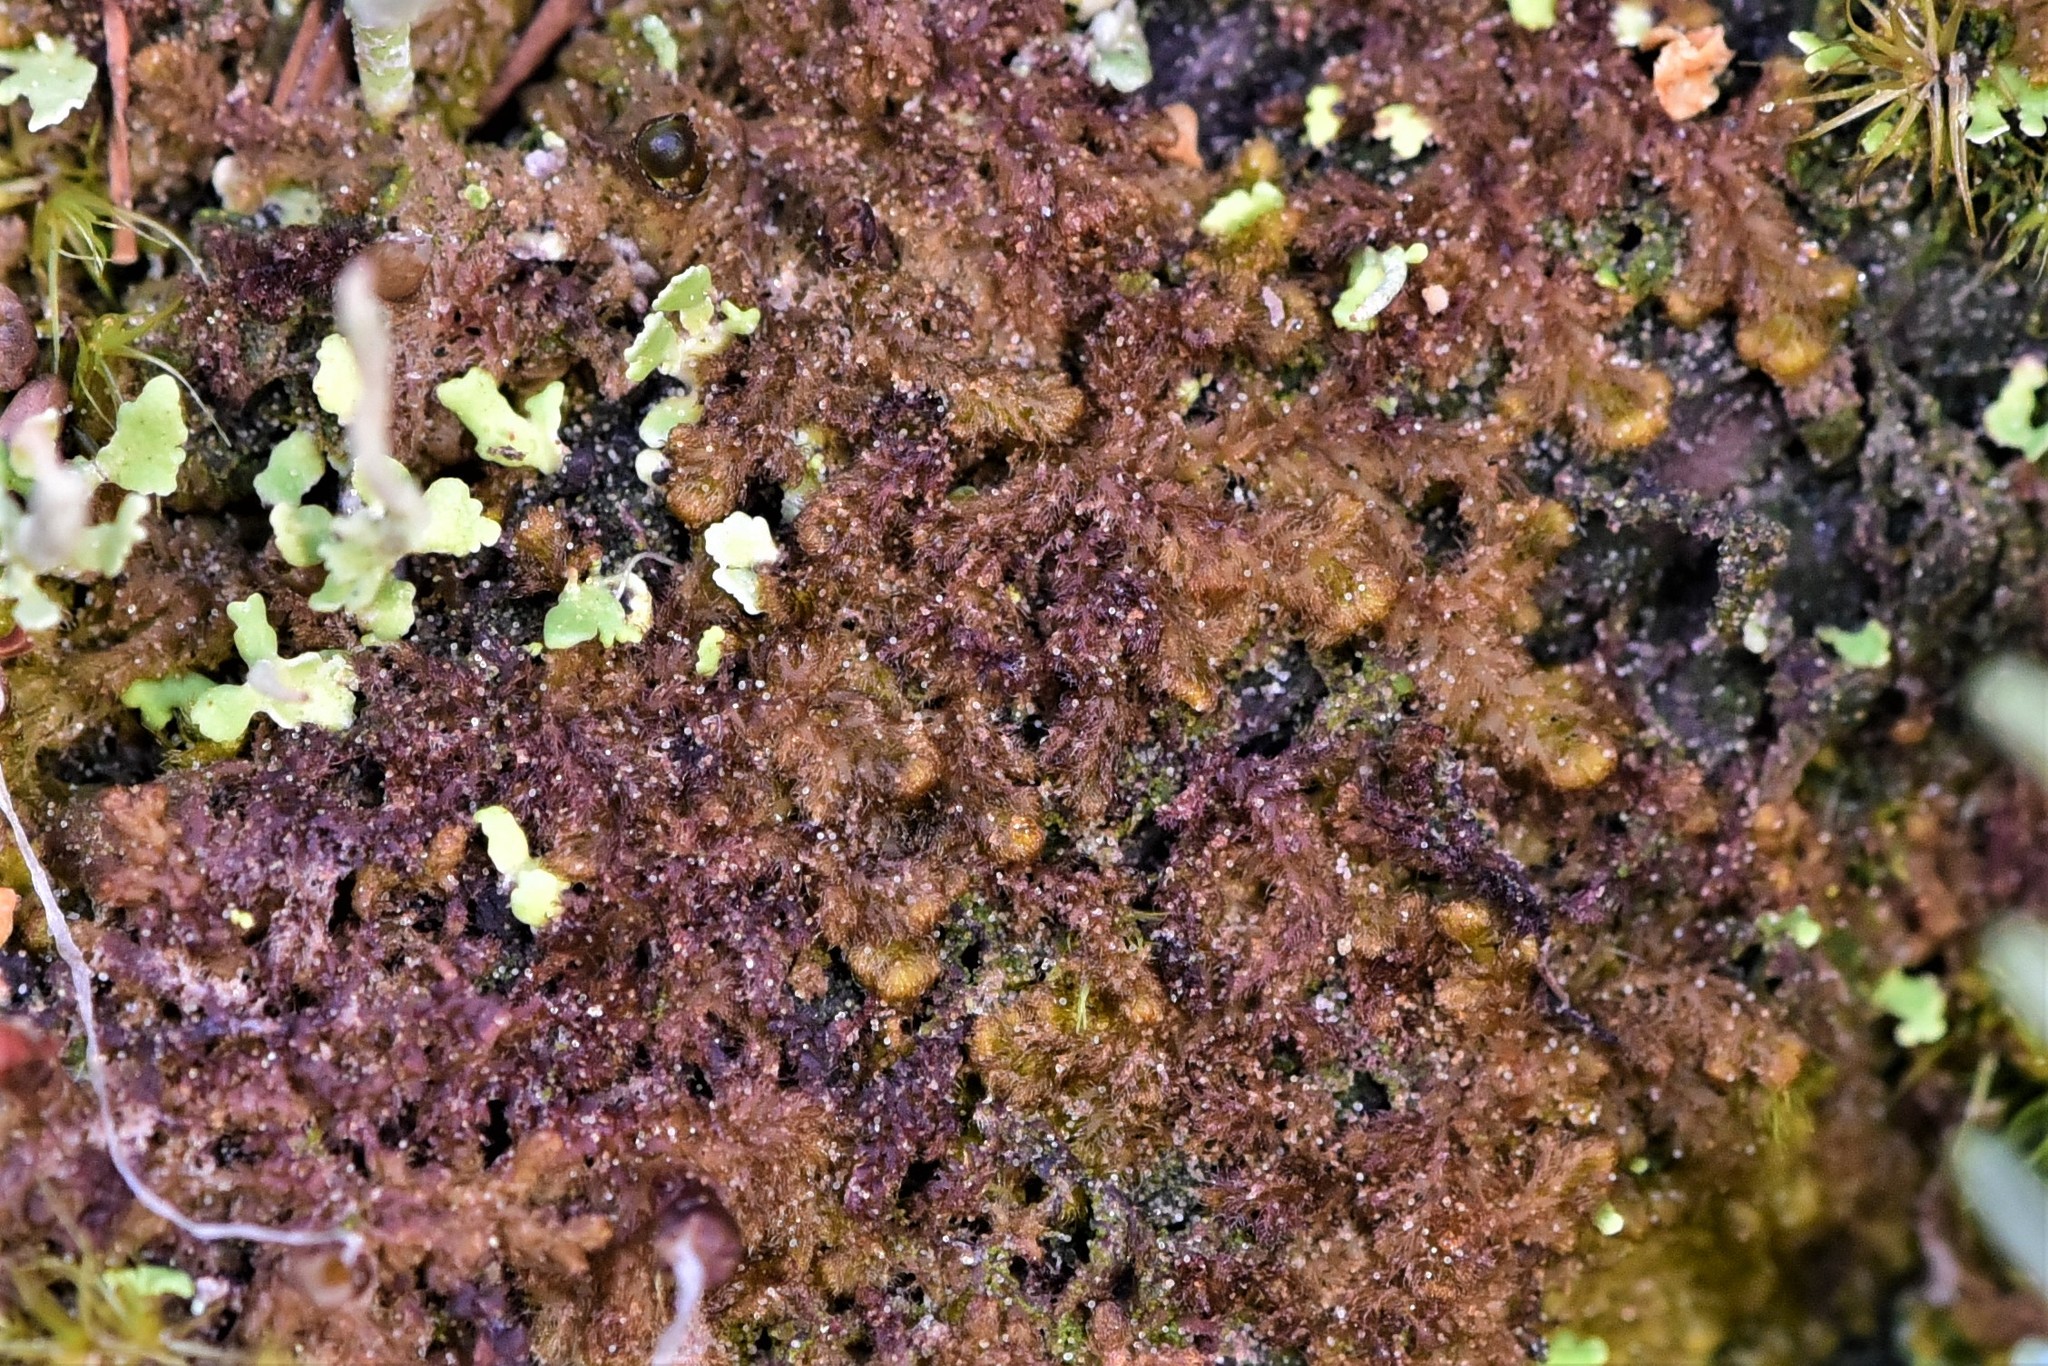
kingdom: Plantae
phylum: Marchantiophyta
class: Jungermanniopsida
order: Ptilidiales
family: Ptilidiaceae
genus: Ptilidium
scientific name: Ptilidium pulcherrimum
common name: Tree fringewort
